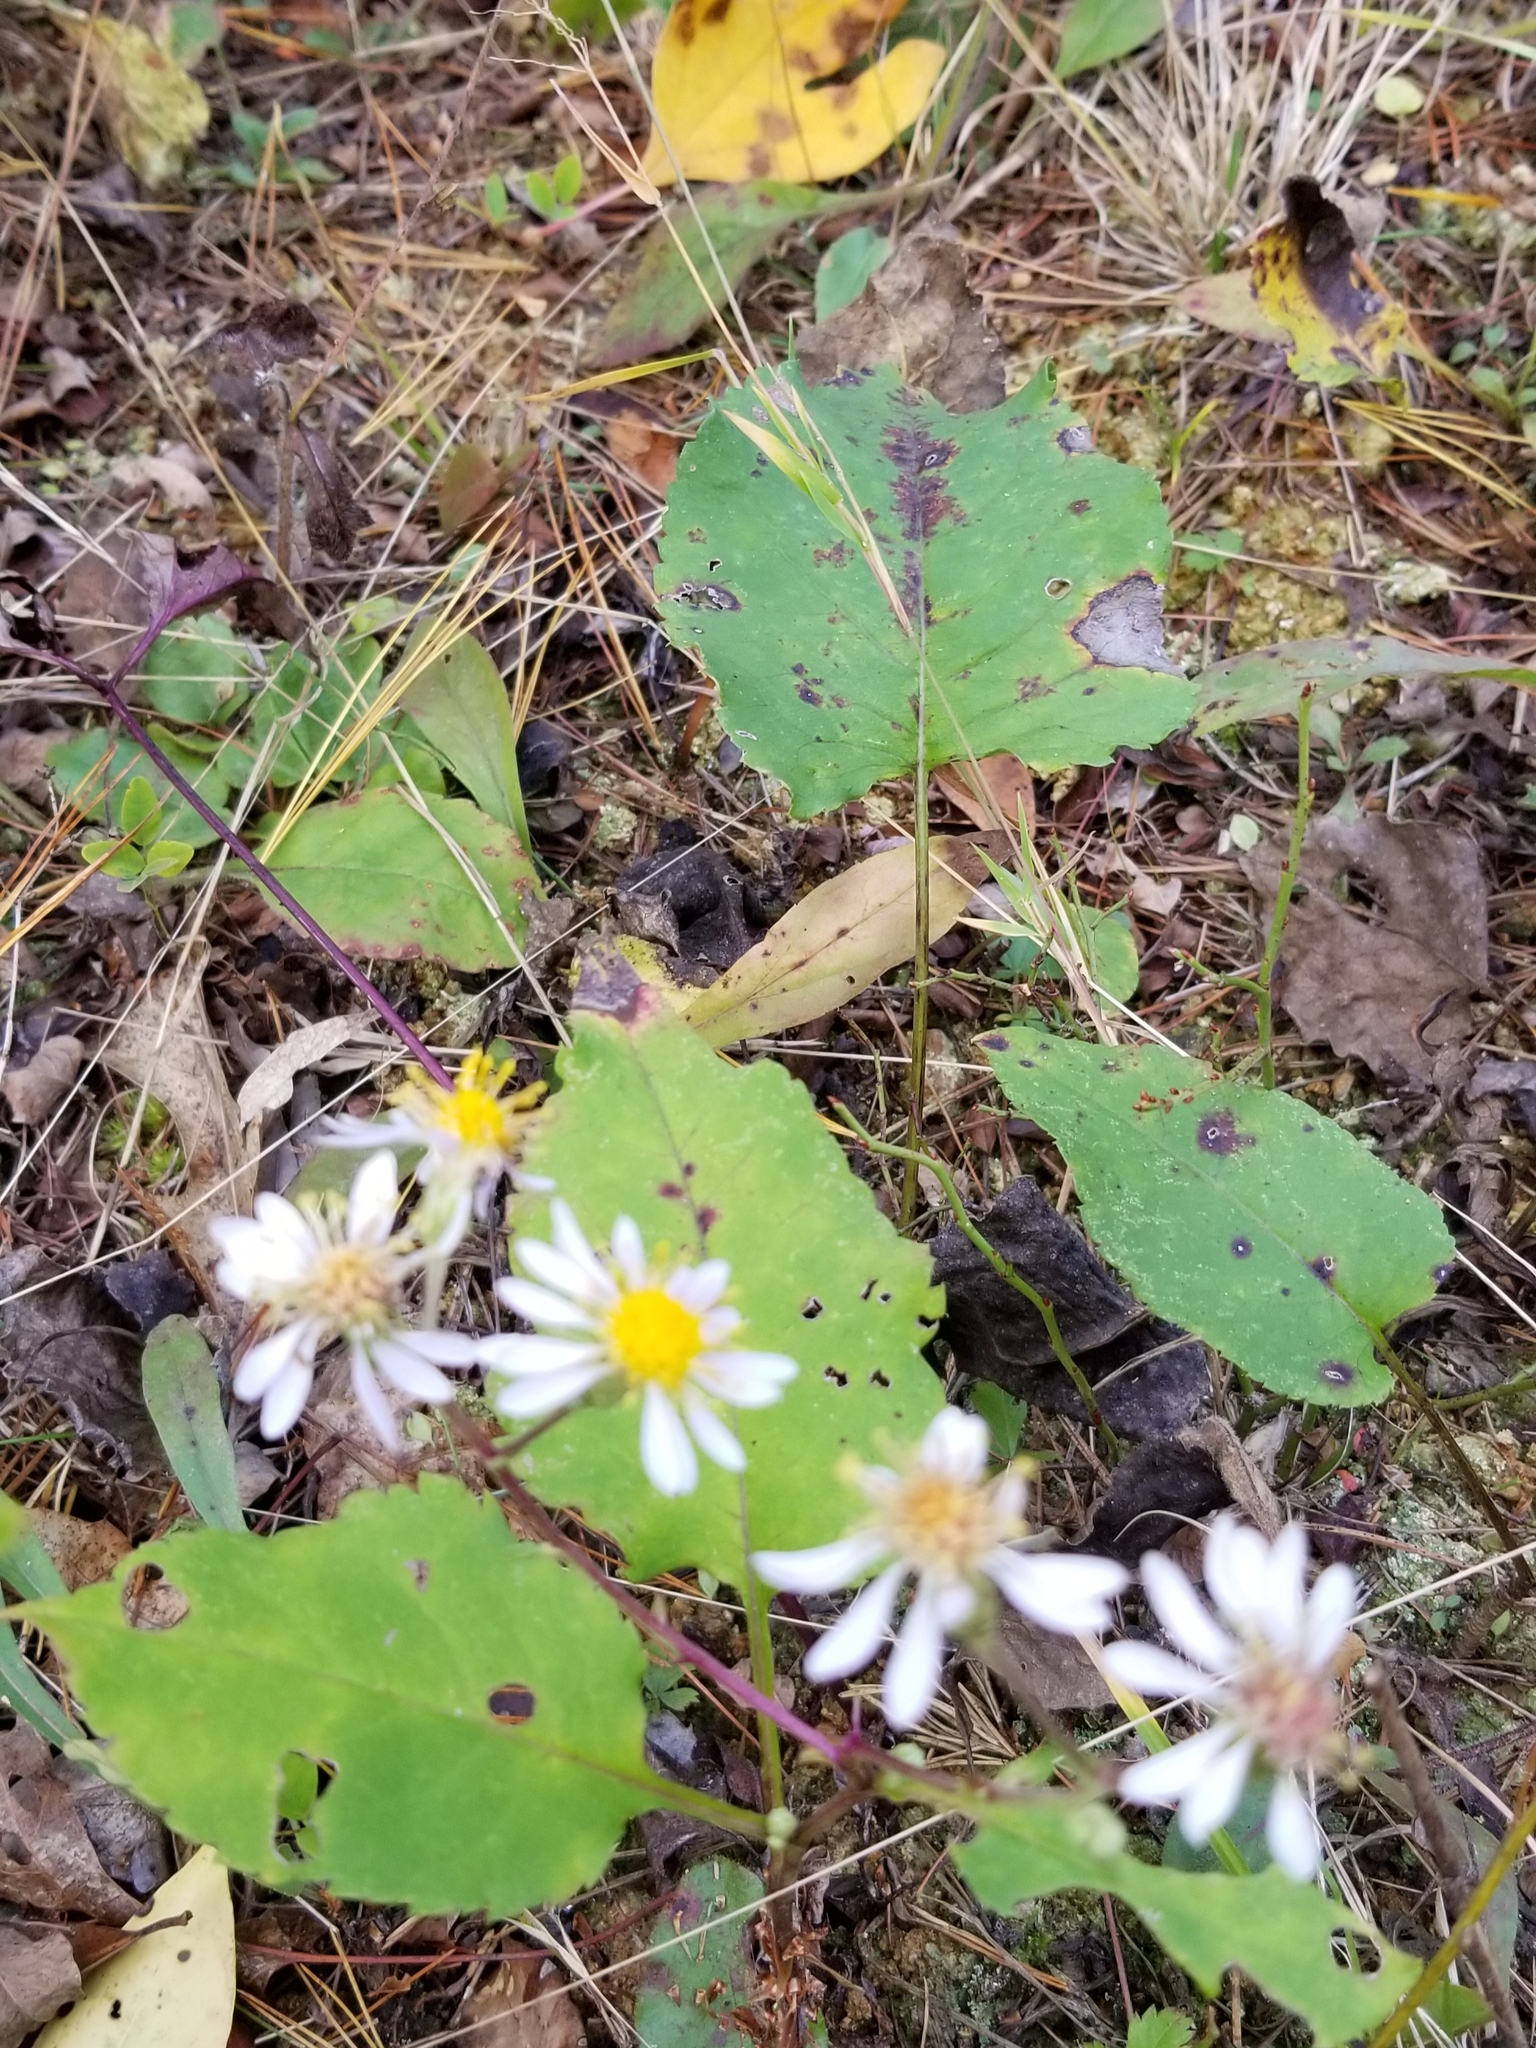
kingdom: Plantae
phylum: Tracheophyta
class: Magnoliopsida
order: Asterales
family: Asteraceae
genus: Eurybia
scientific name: Eurybia macrophylla
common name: Big-leaved aster
